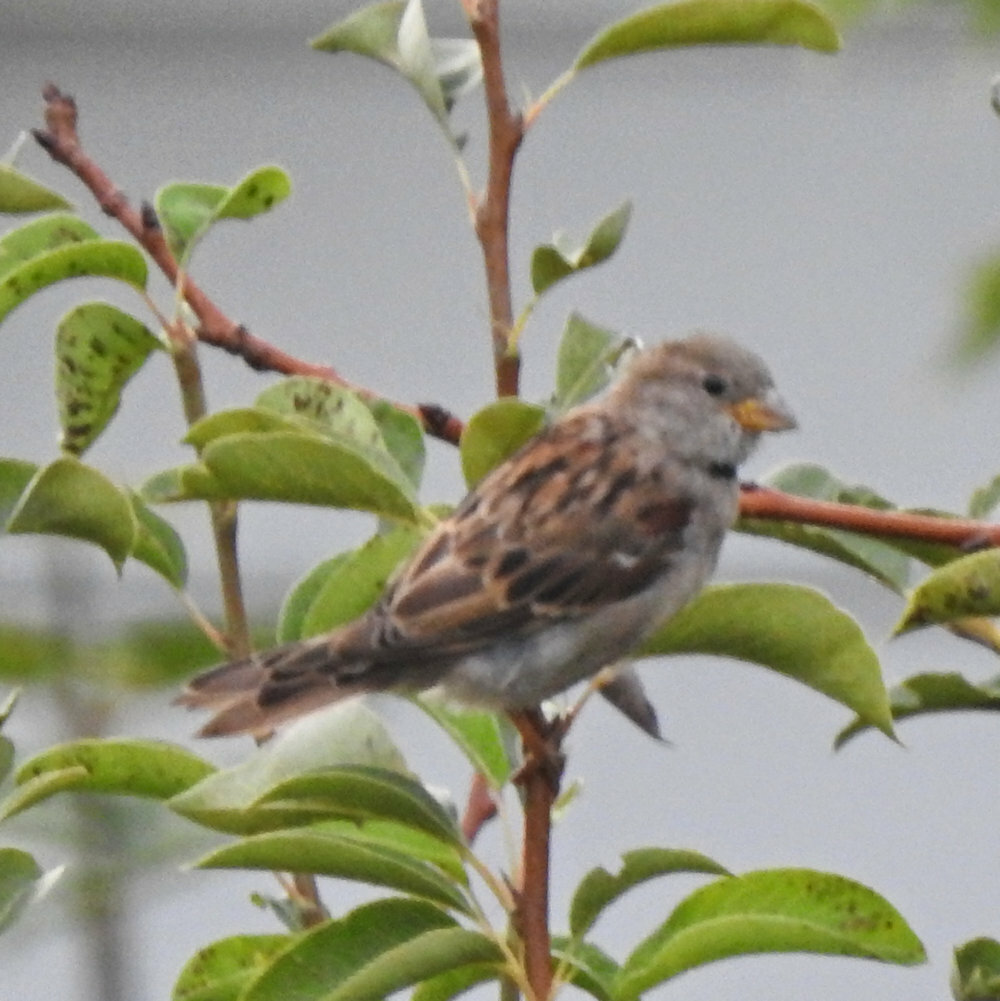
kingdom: Animalia
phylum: Chordata
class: Aves
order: Passeriformes
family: Passeridae
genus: Passer
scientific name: Passer domesticus
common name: House sparrow
